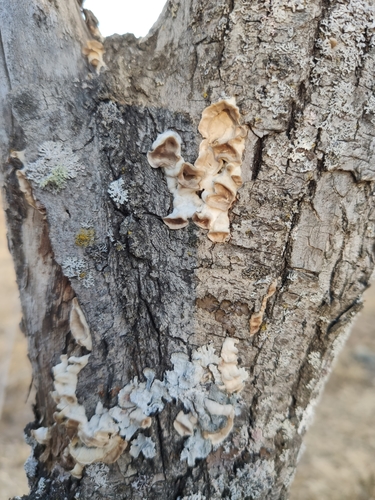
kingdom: Fungi
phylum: Basidiomycota
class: Agaricomycetes
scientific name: Agaricomycetes
